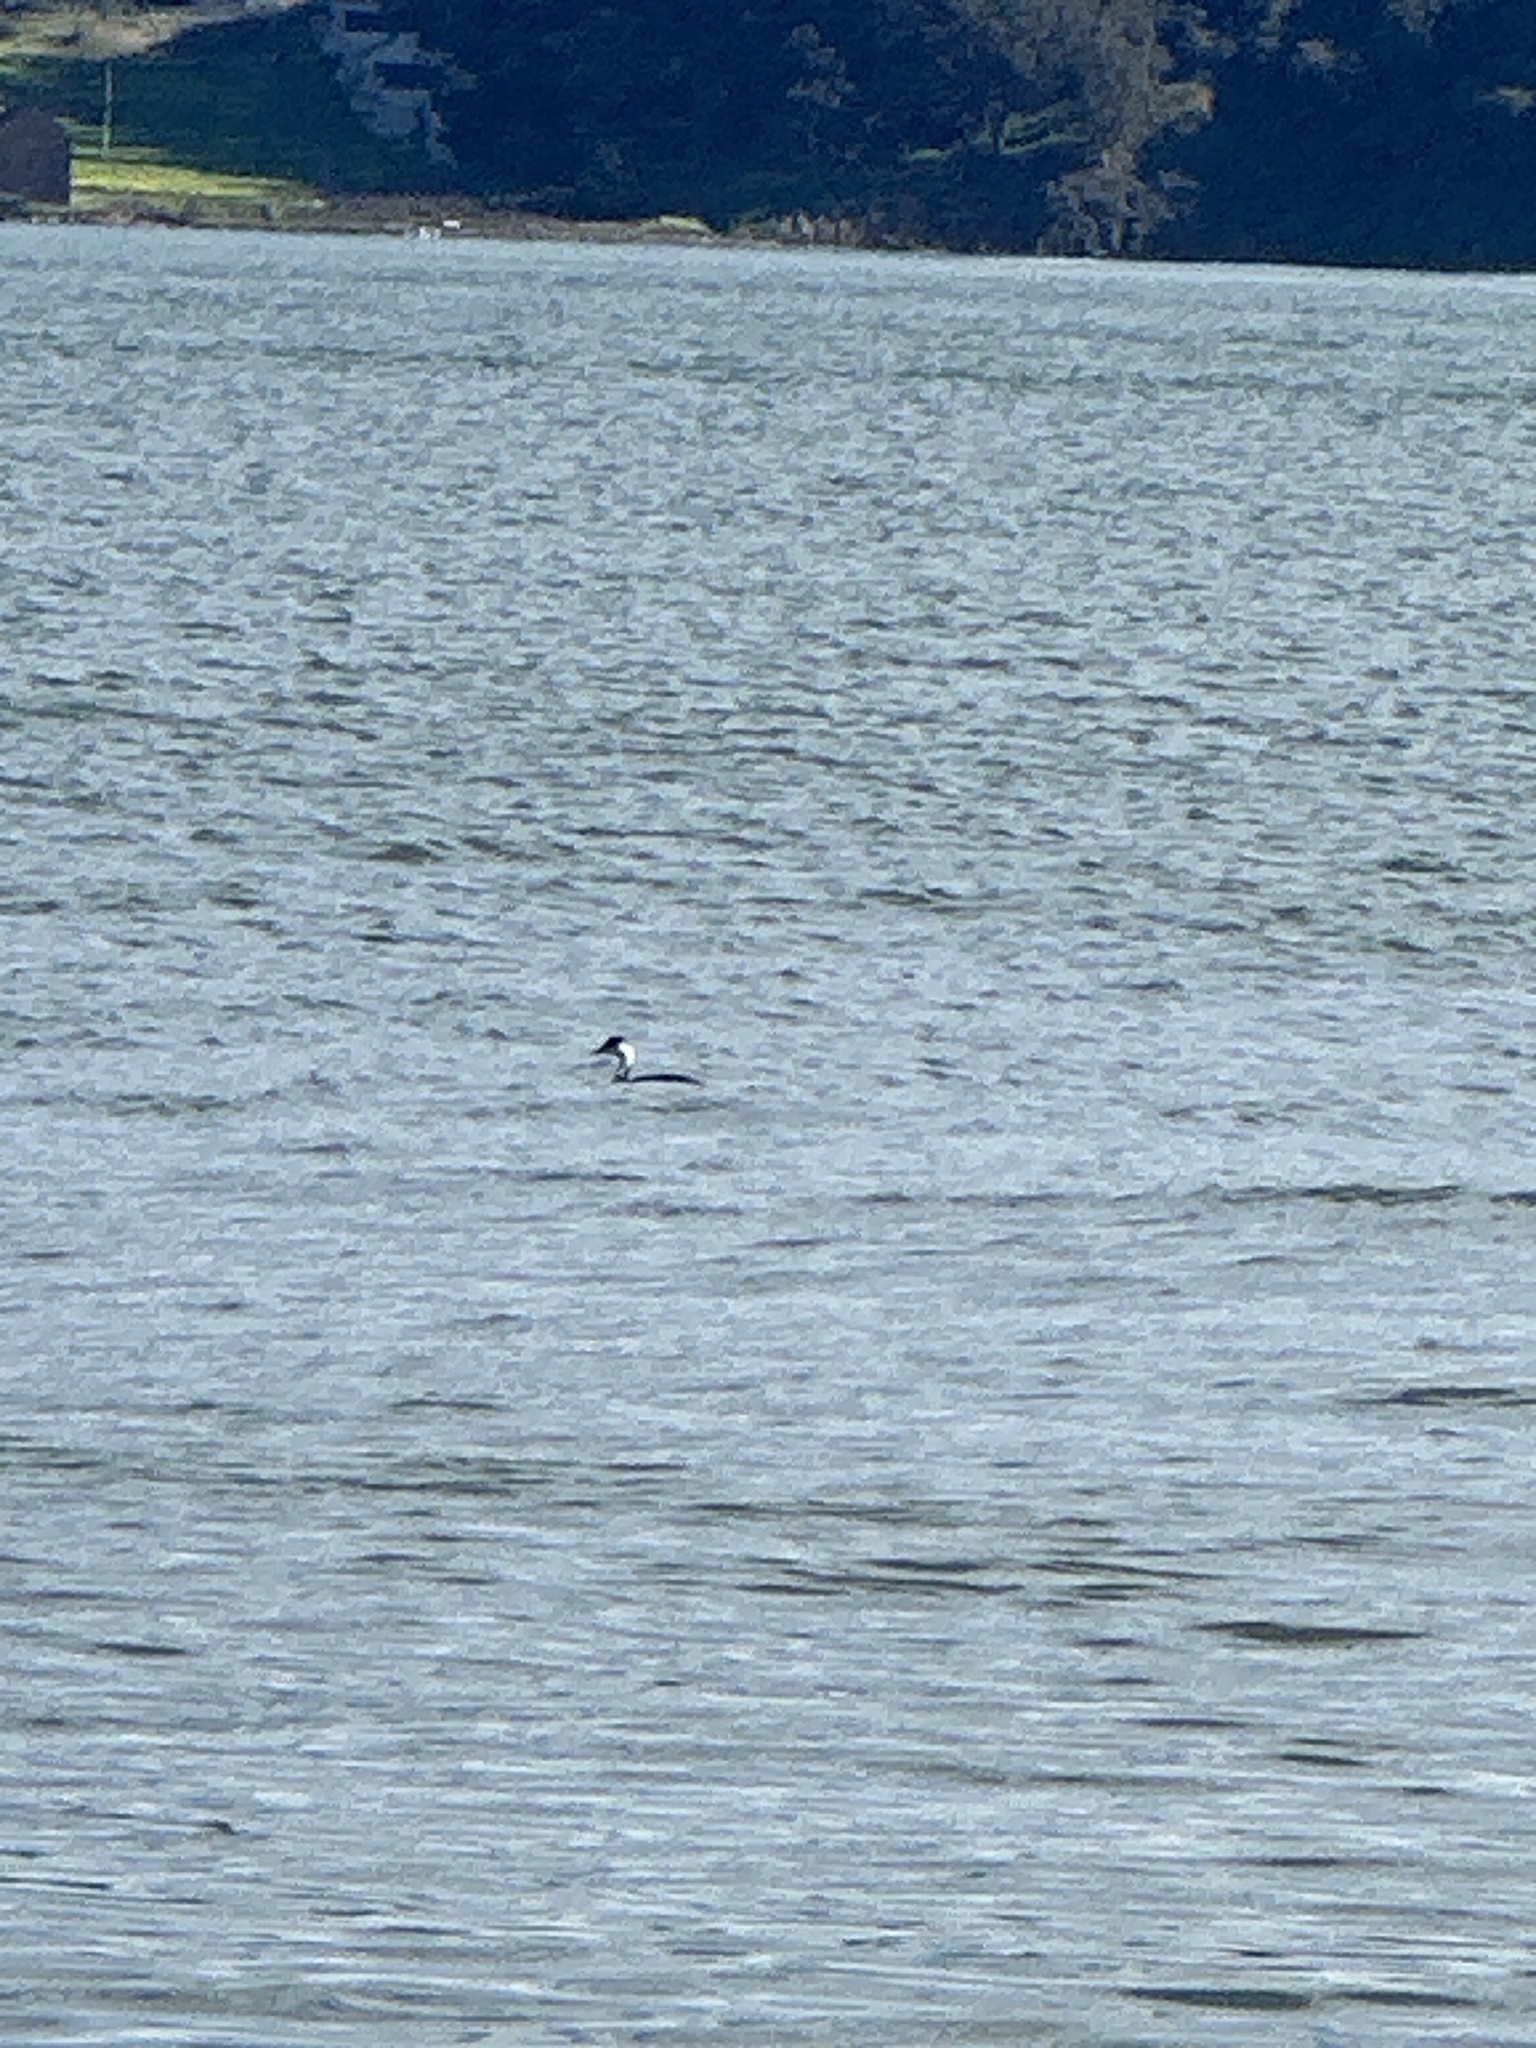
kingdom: Animalia
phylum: Chordata
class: Aves
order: Podicipediformes
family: Podicipedidae
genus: Podiceps
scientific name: Podiceps auritus
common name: Horned grebe
